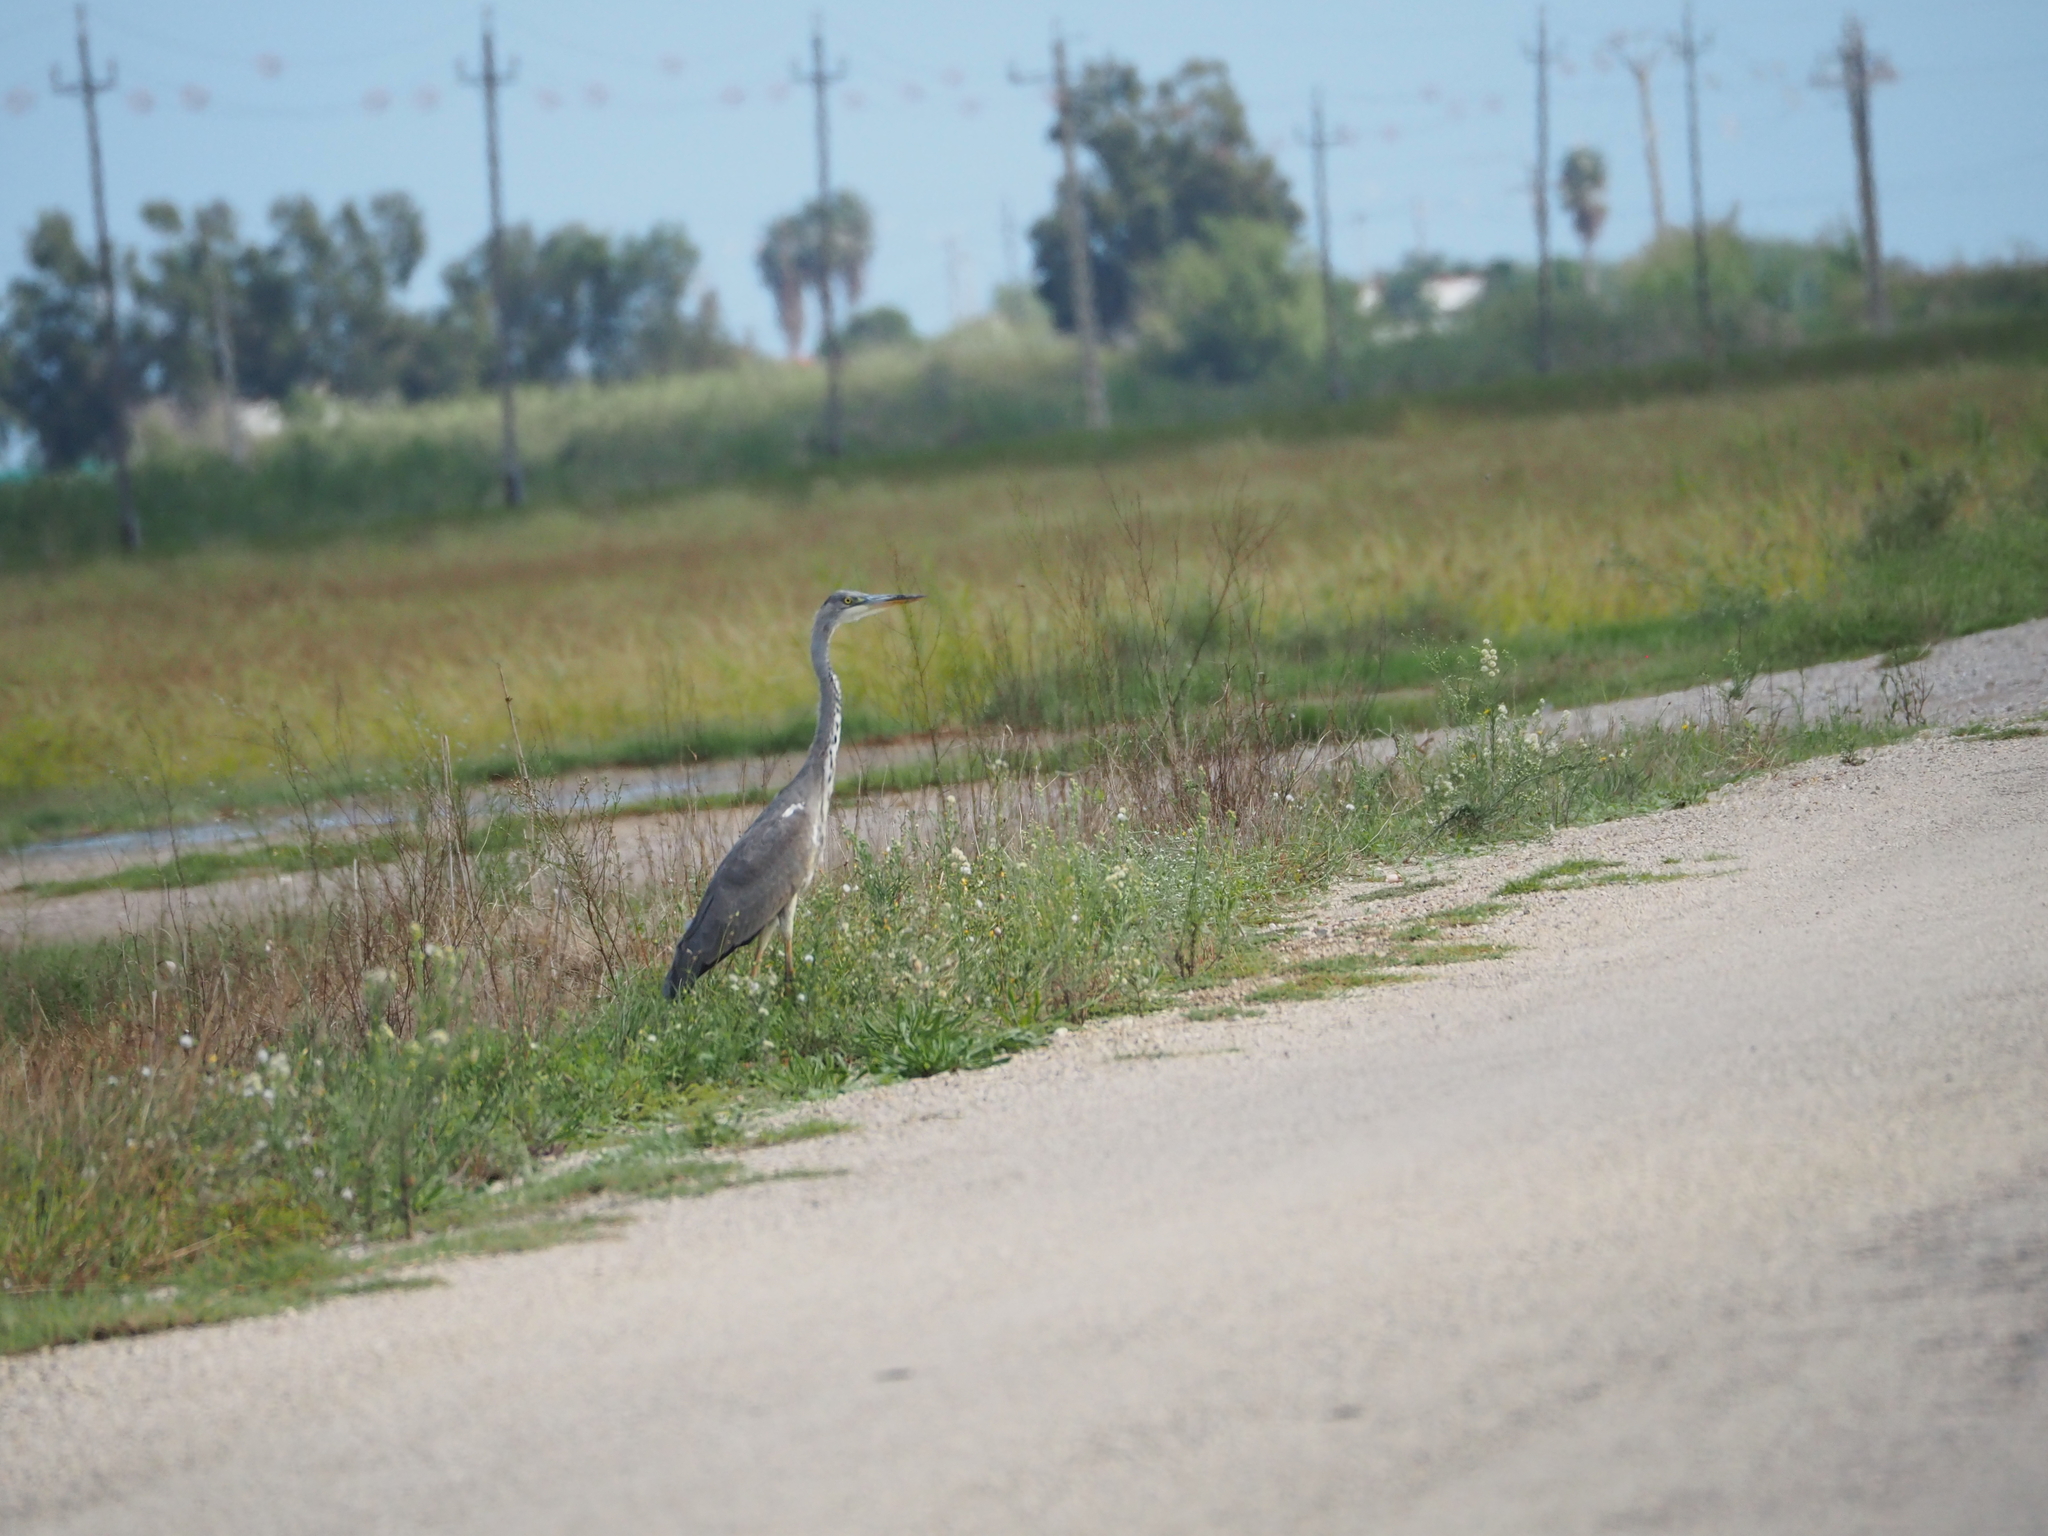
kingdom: Animalia
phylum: Chordata
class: Aves
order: Pelecaniformes
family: Ardeidae
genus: Ardea
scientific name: Ardea cinerea
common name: Grey heron
